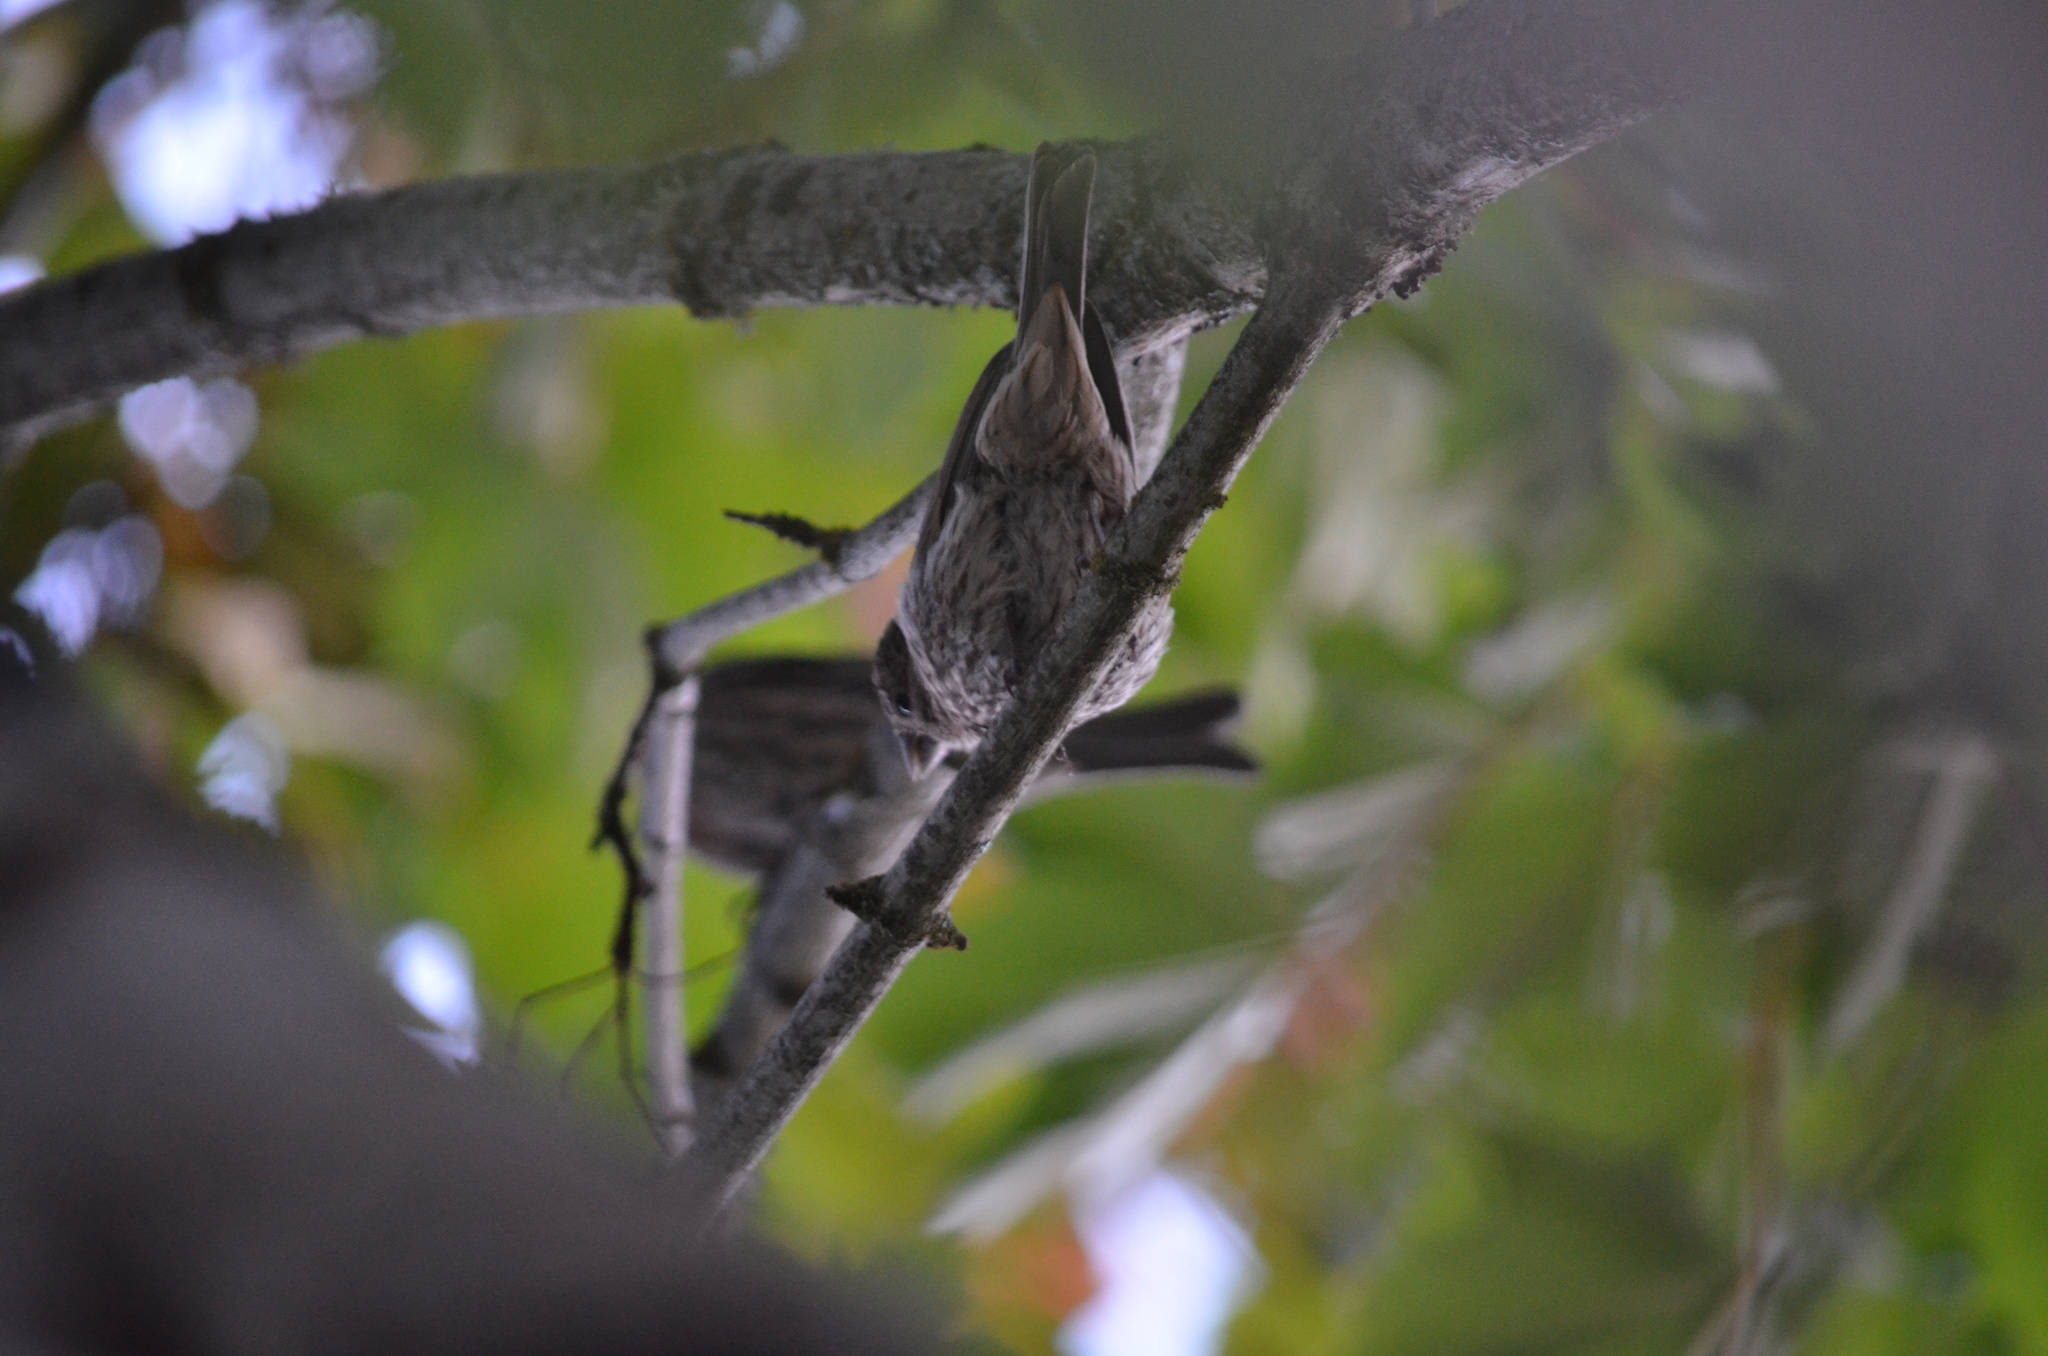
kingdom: Animalia
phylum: Chordata
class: Aves
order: Passeriformes
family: Fringillidae
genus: Haemorhous
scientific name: Haemorhous mexicanus
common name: House finch
